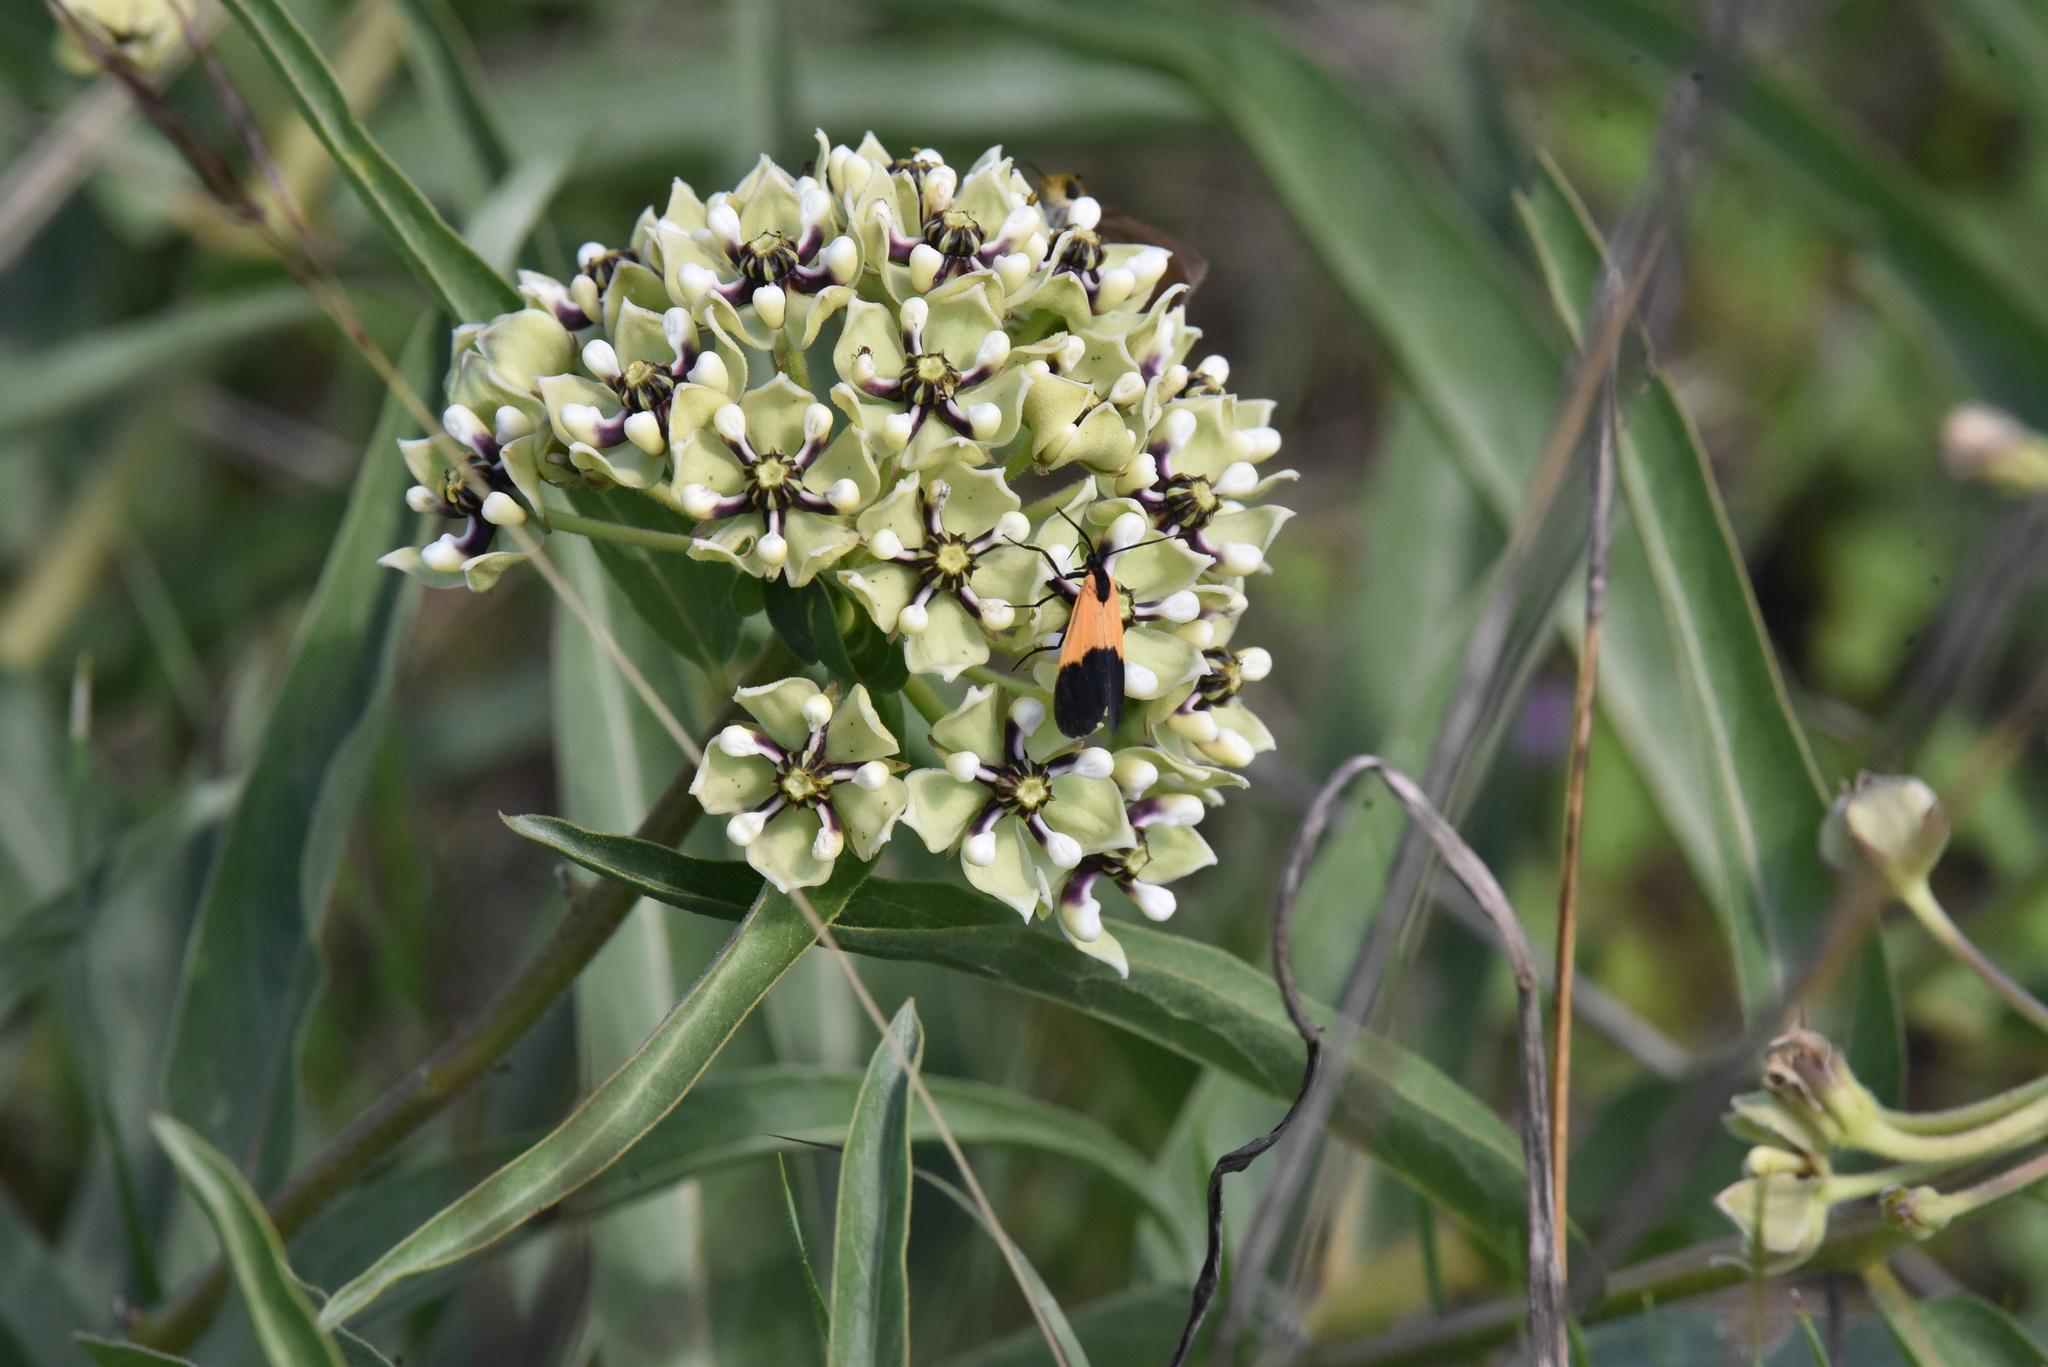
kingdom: Animalia
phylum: Arthropoda
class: Insecta
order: Lepidoptera
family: Erebidae
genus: Lycomorpha
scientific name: Lycomorpha pholus
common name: Black-and-yellow lichen moth
